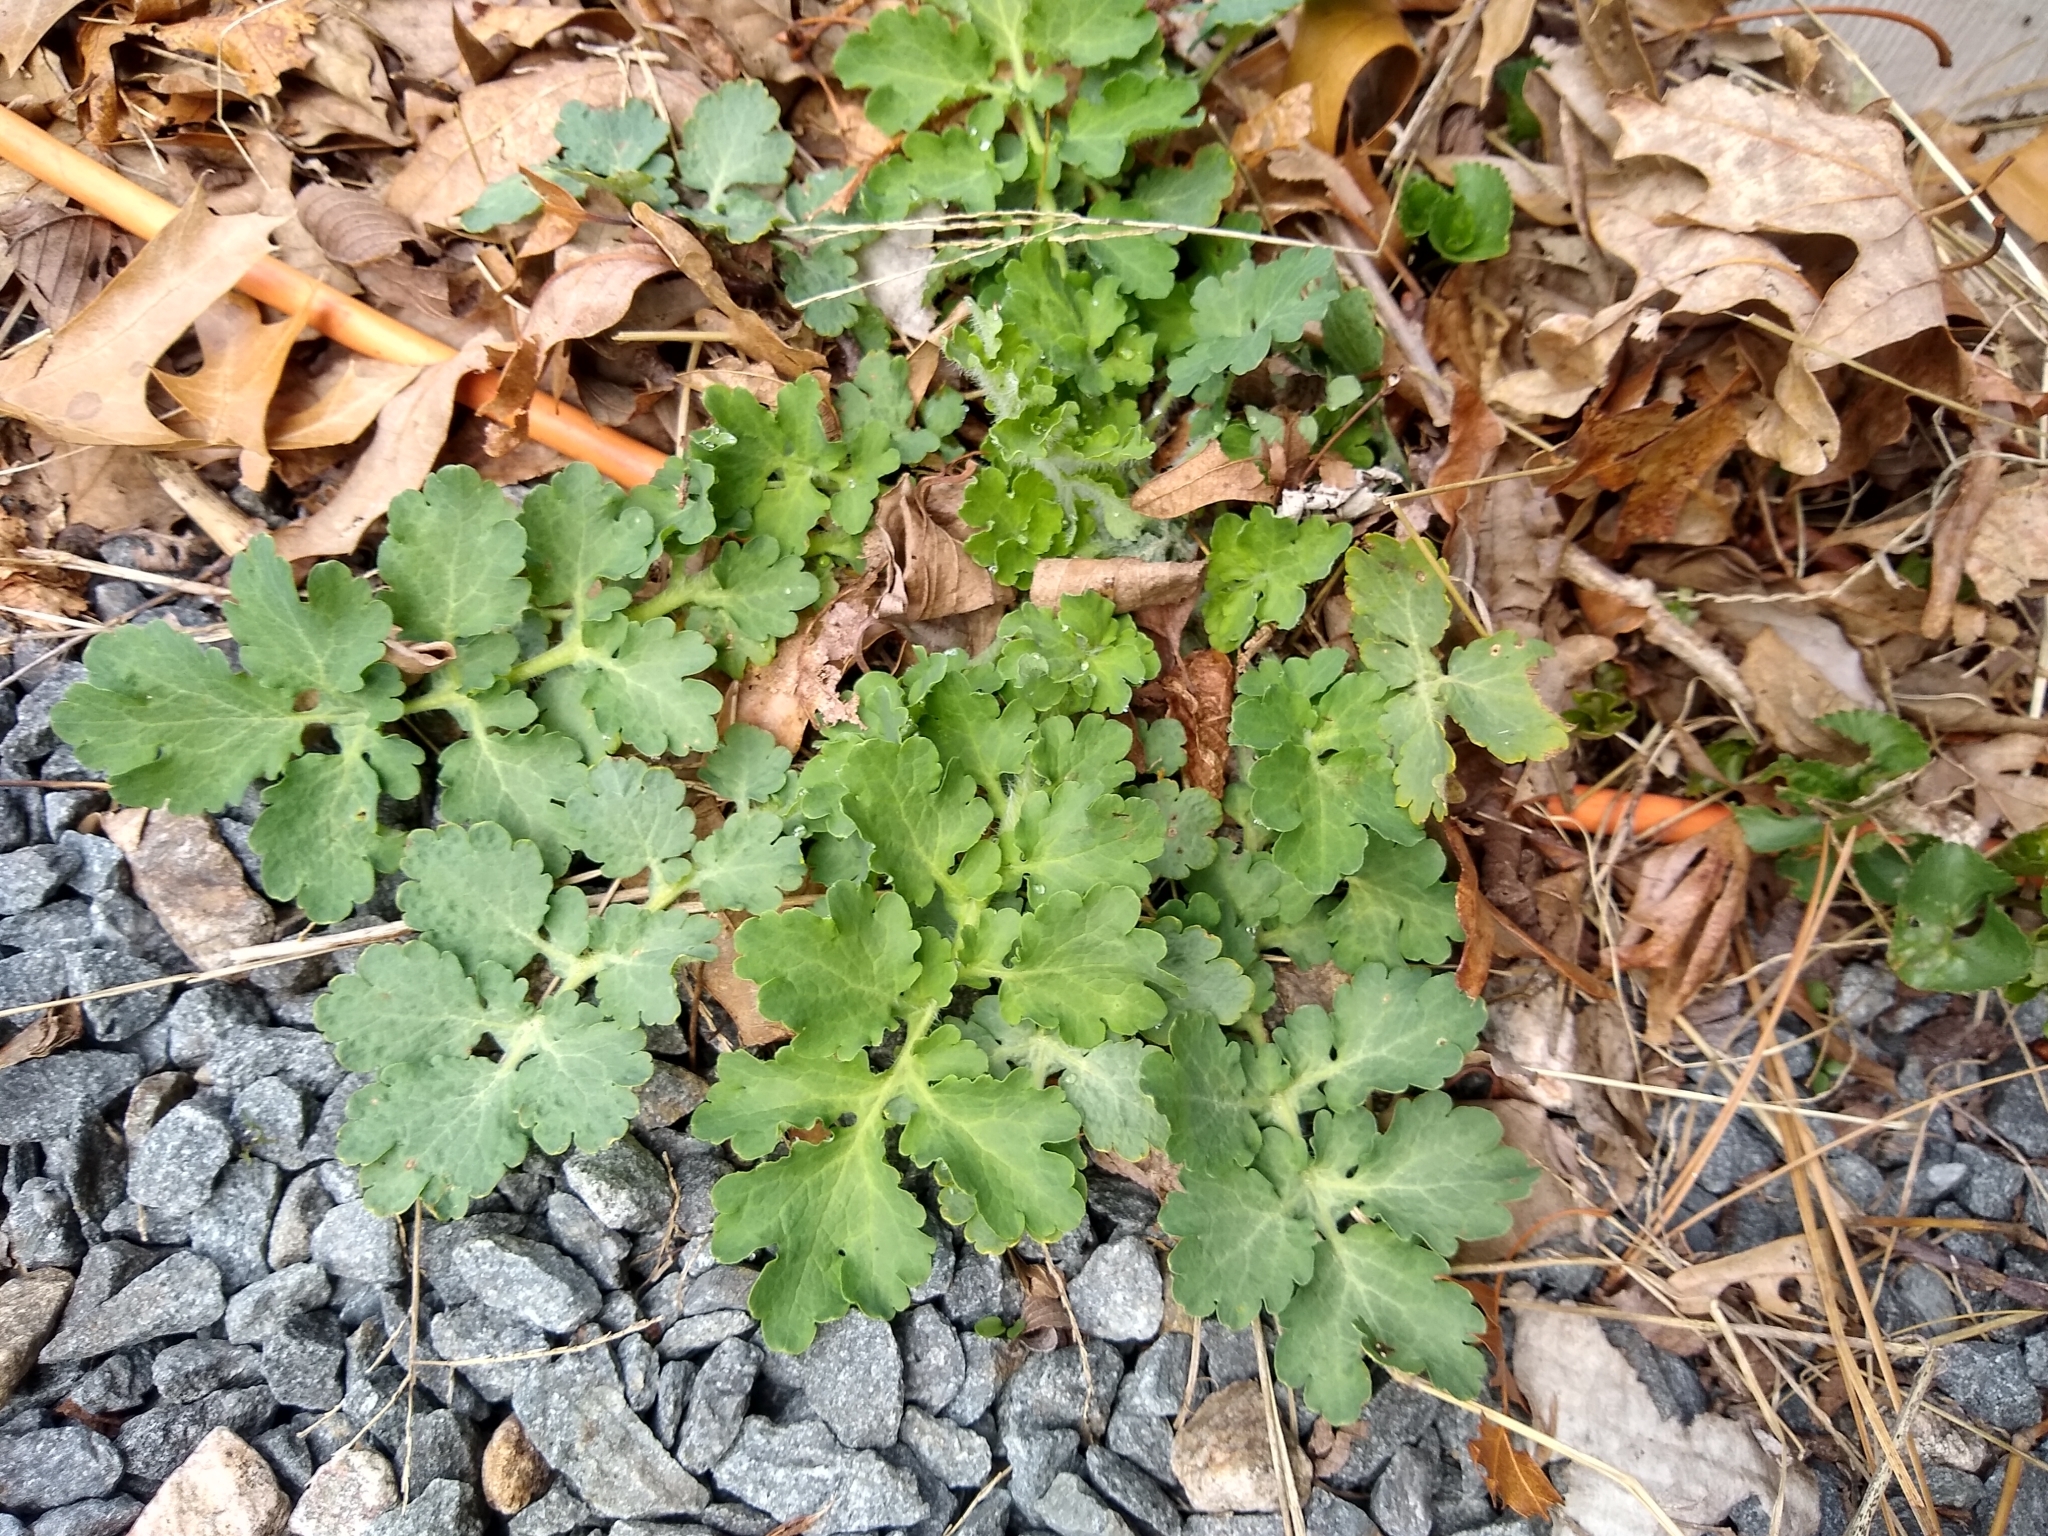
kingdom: Plantae
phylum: Tracheophyta
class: Magnoliopsida
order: Ranunculales
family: Papaveraceae
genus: Chelidonium
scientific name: Chelidonium majus
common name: Greater celandine
